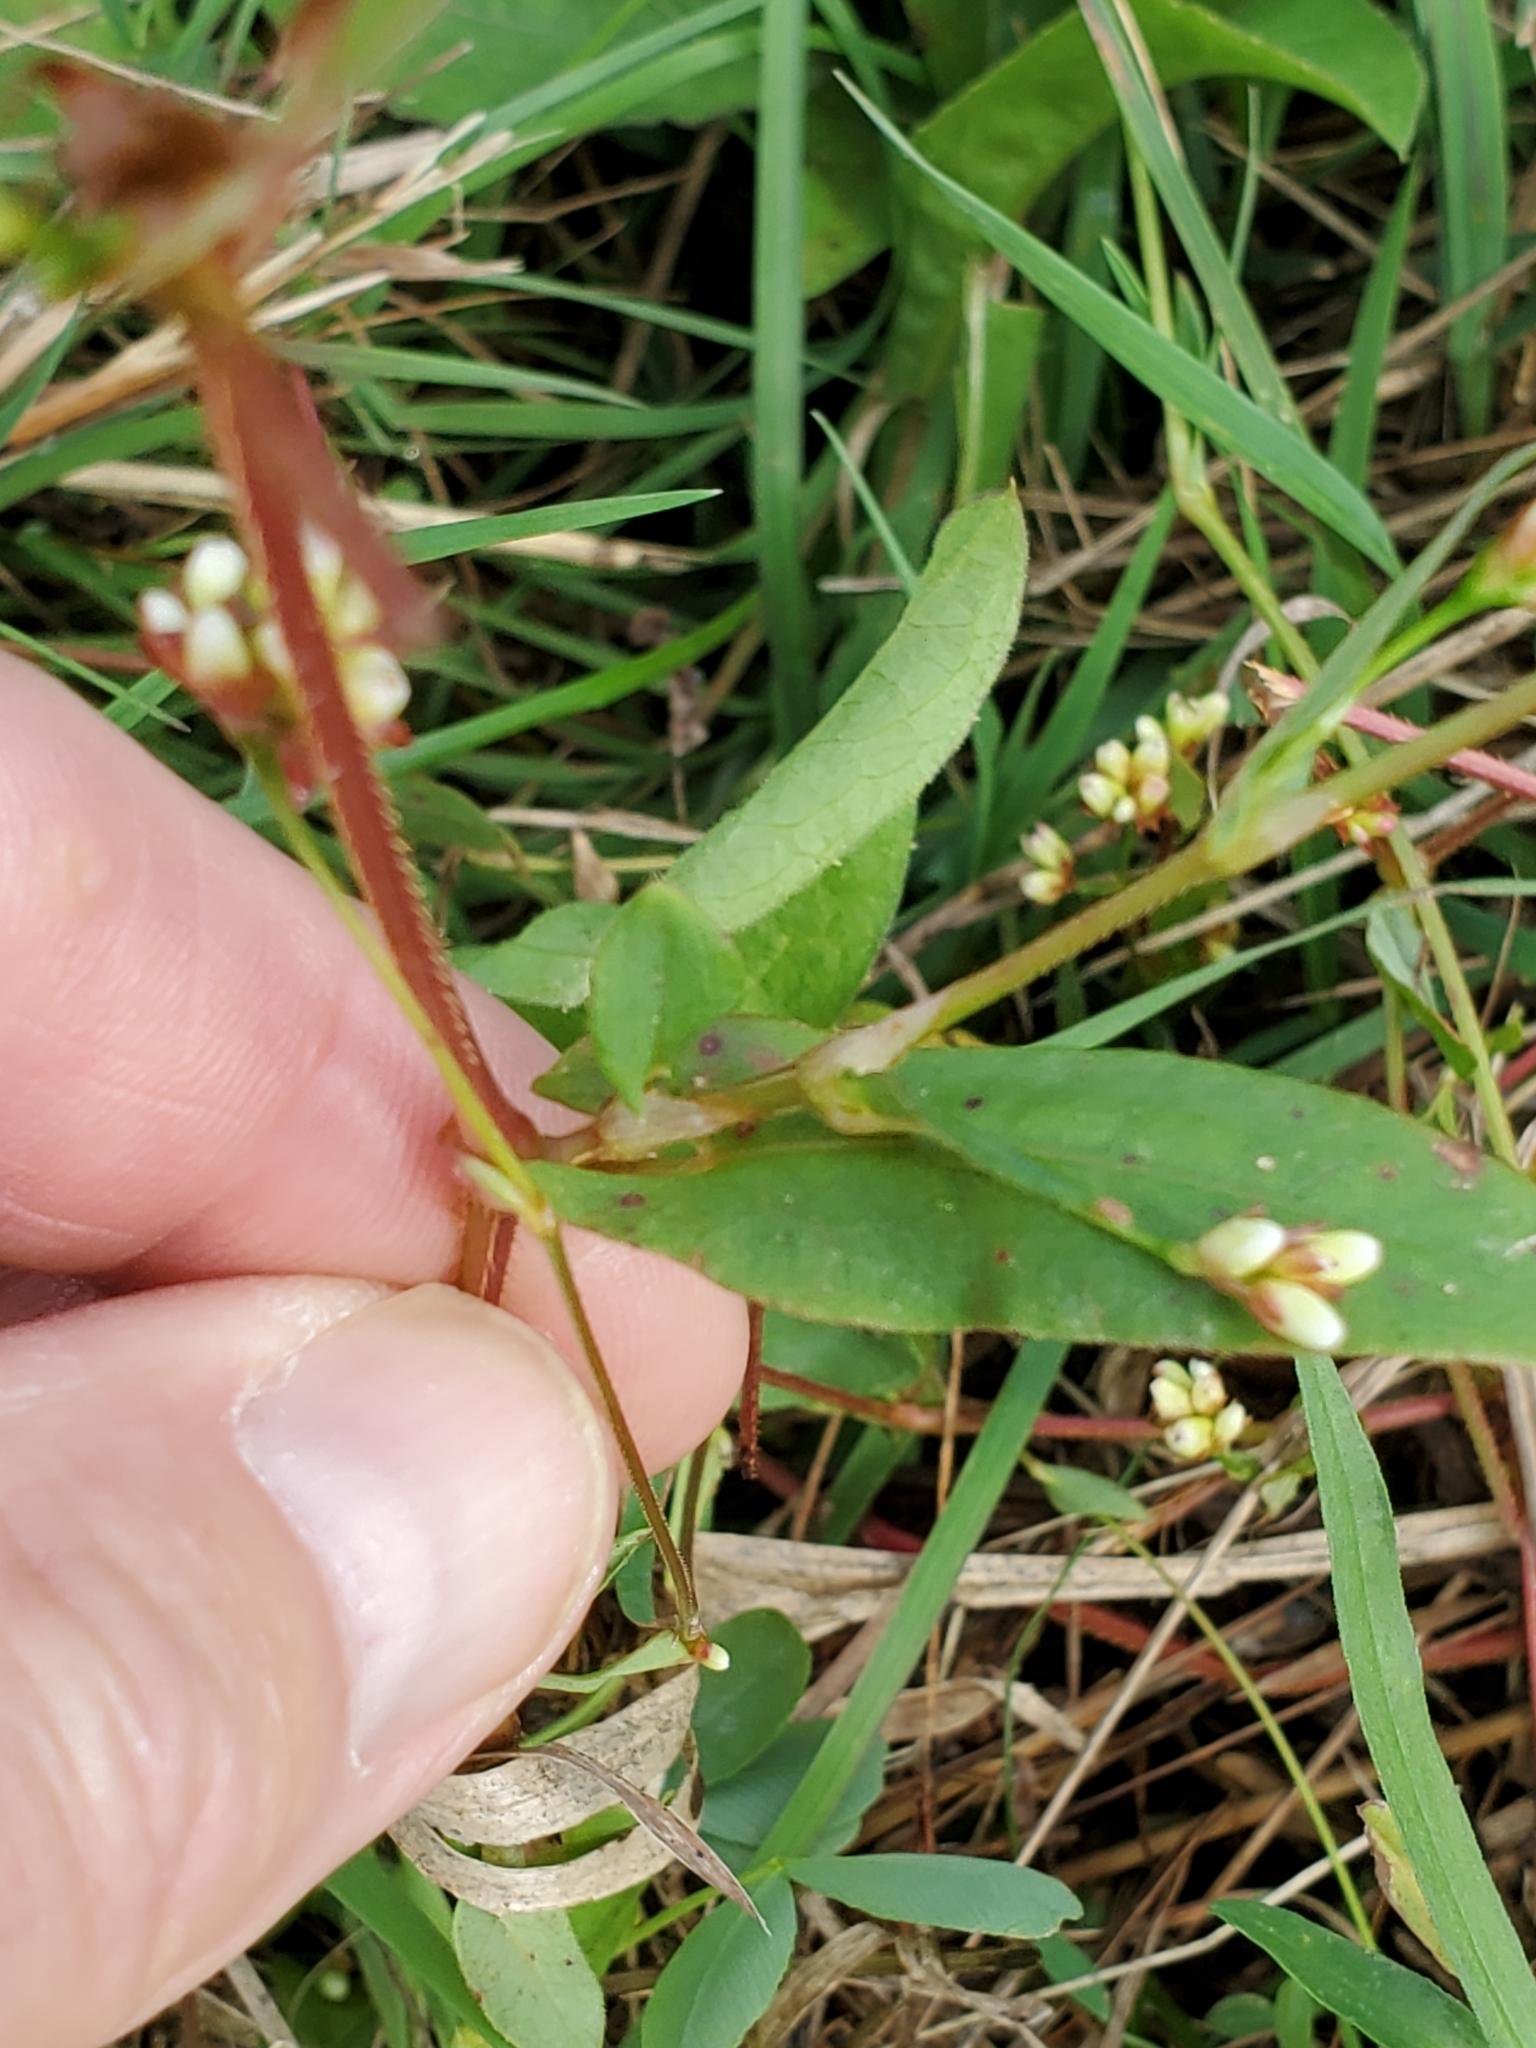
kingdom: Plantae
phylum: Tracheophyta
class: Magnoliopsida
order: Caryophyllales
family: Polygonaceae
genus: Persicaria
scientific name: Persicaria sagittata
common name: American tearthumb
